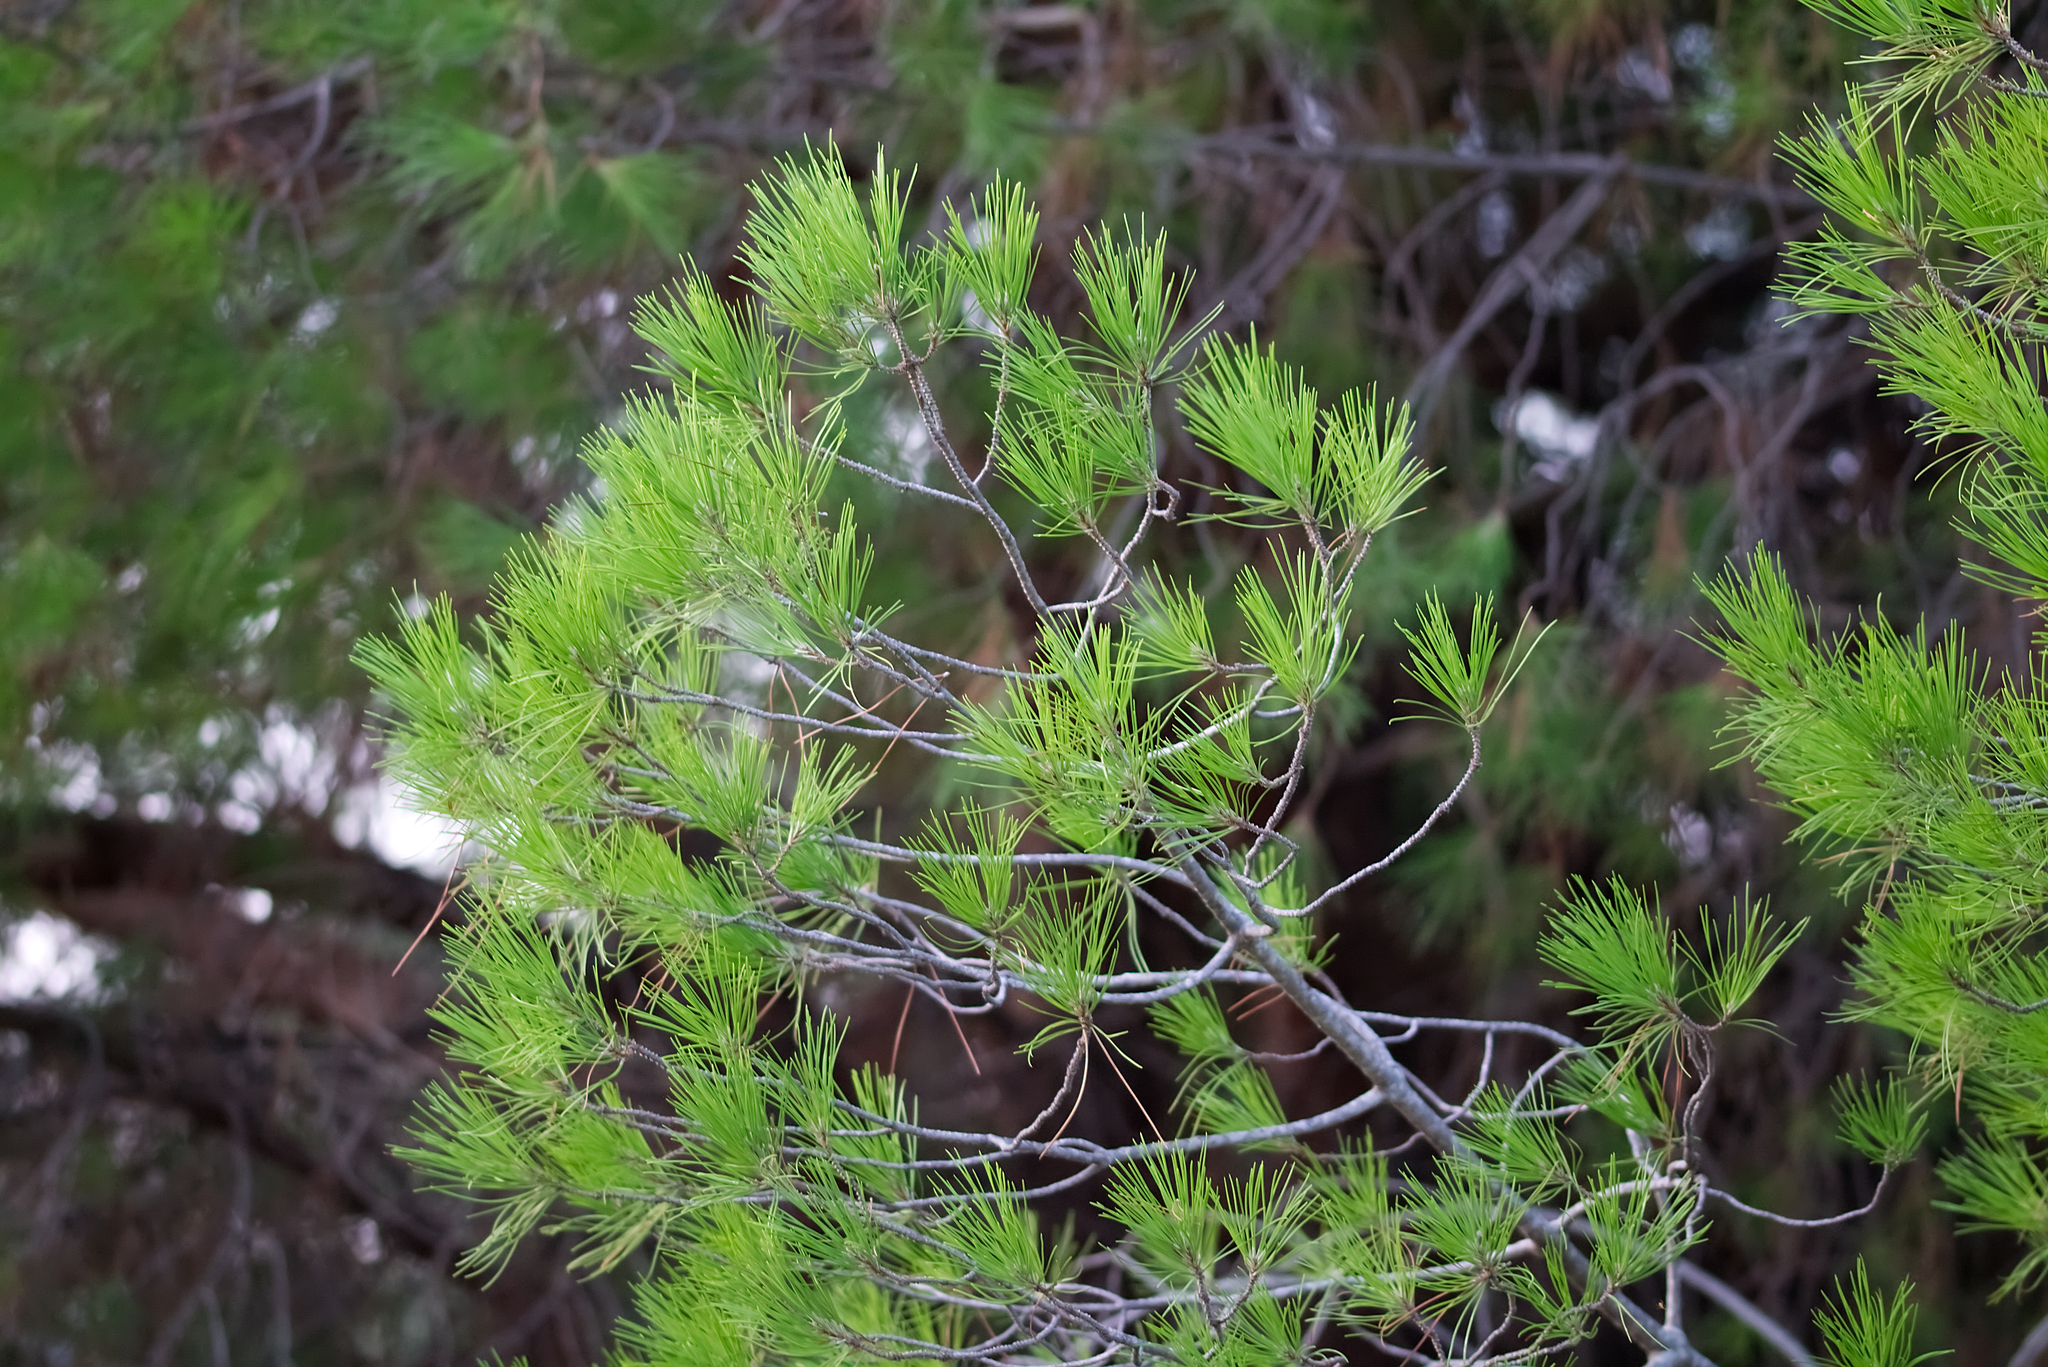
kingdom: Plantae
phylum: Tracheophyta
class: Pinopsida
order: Pinales
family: Pinaceae
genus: Pinus
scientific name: Pinus brutia
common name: Turkish pine
